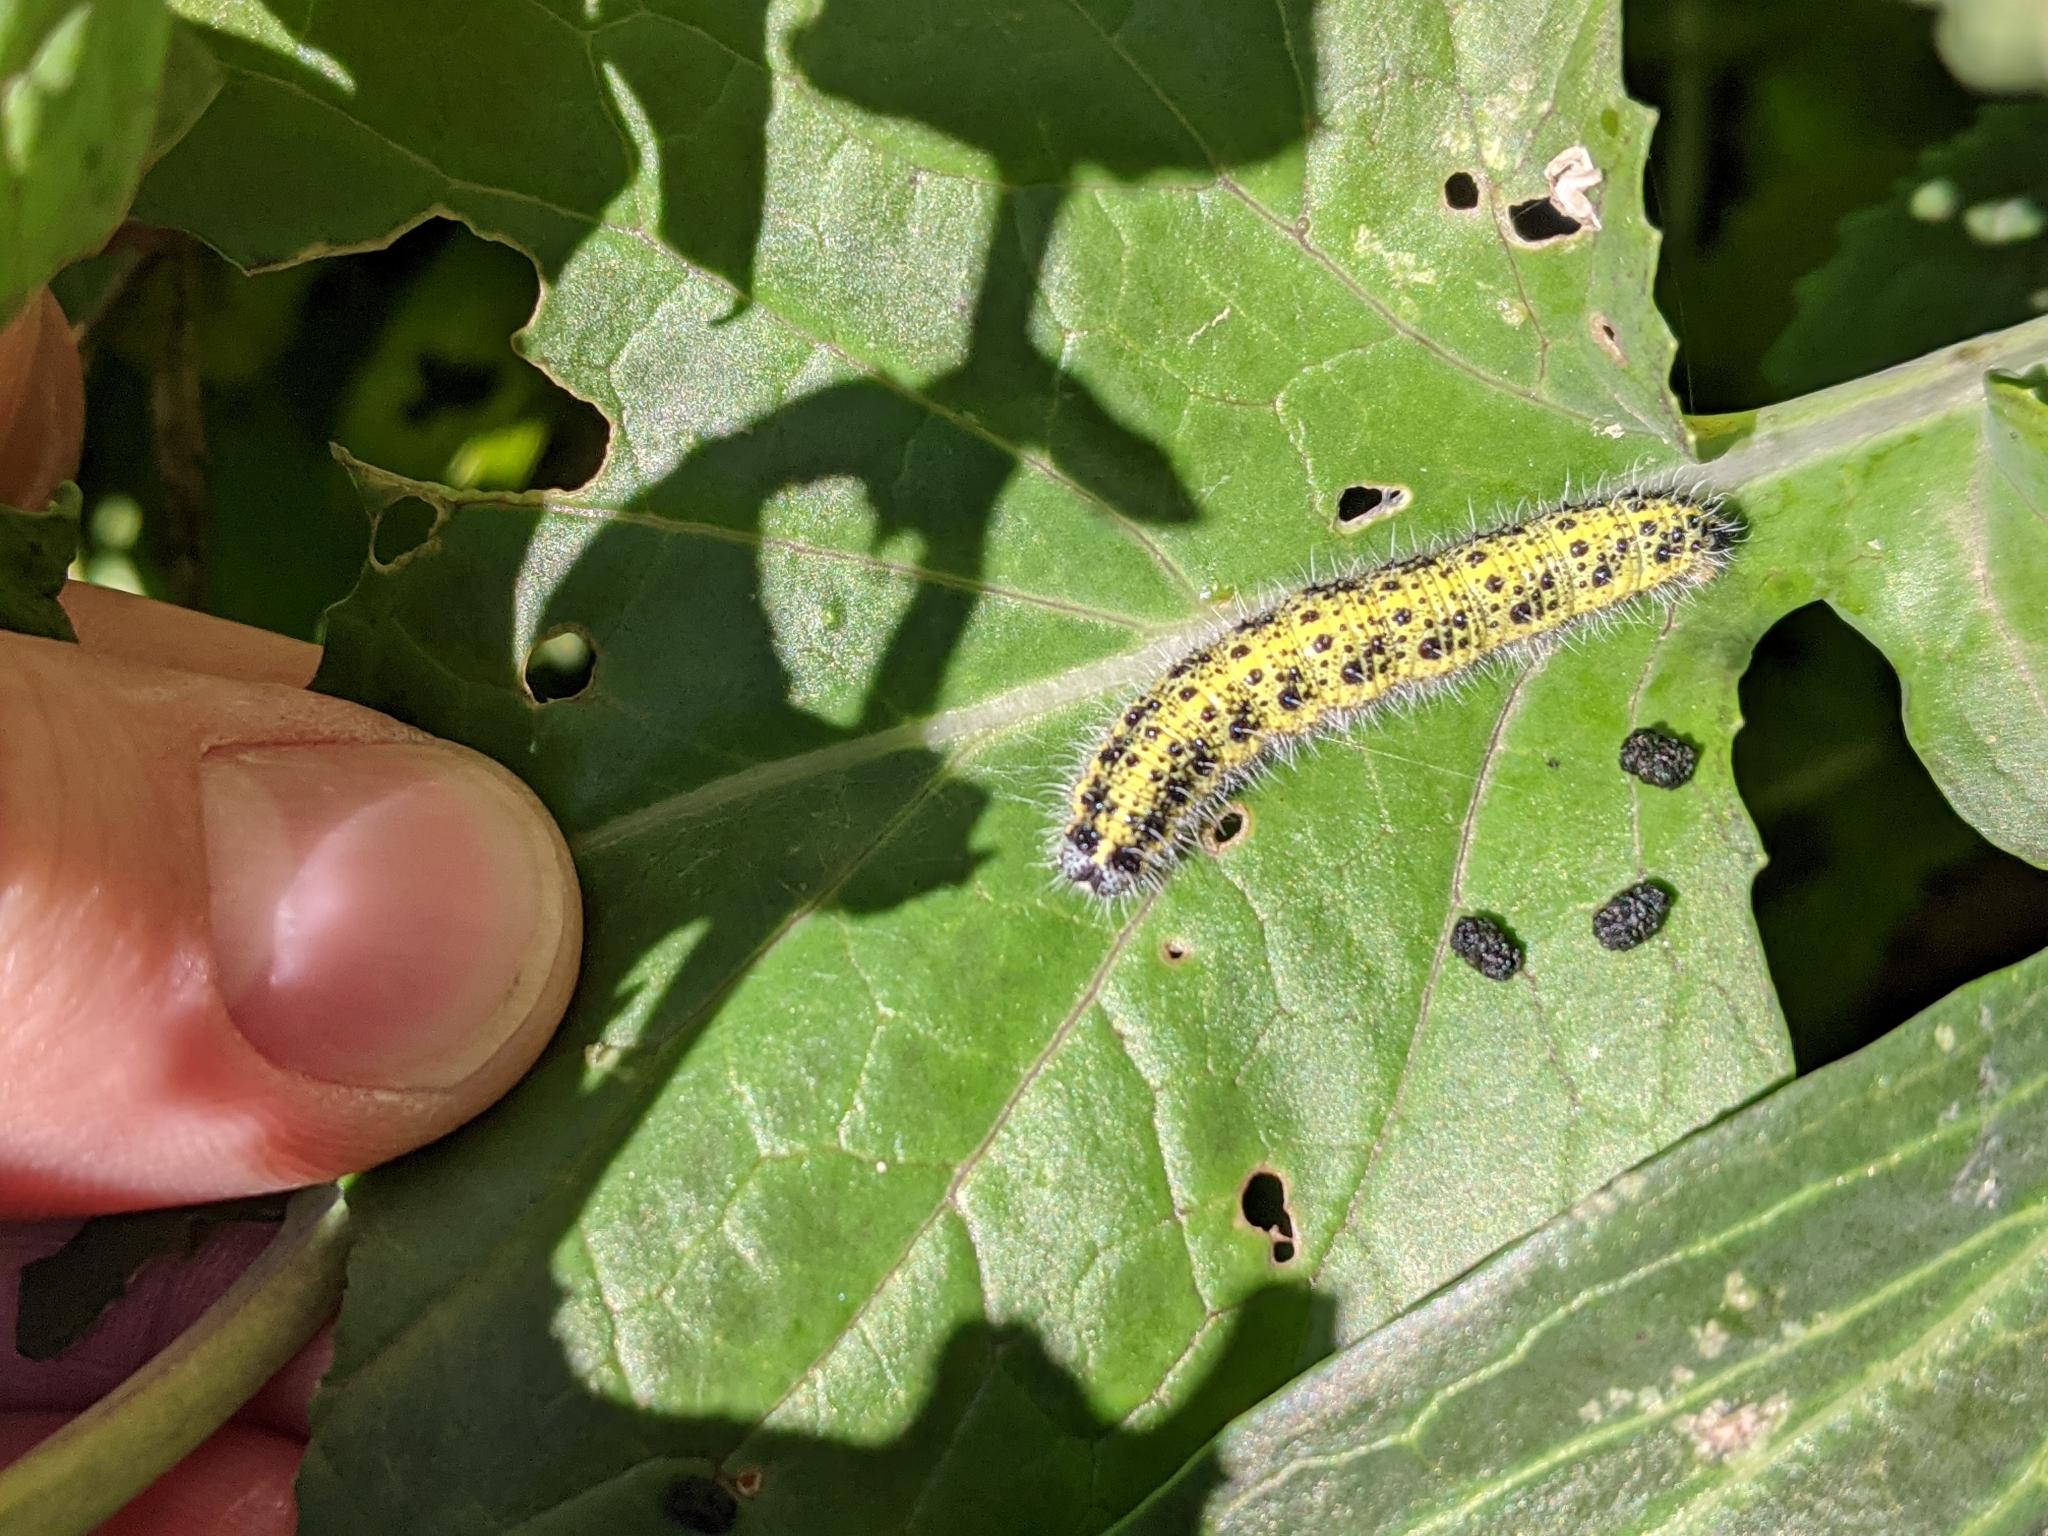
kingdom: Animalia
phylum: Arthropoda
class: Insecta
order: Lepidoptera
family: Pieridae
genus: Pieris
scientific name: Pieris brassicae
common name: Large white
